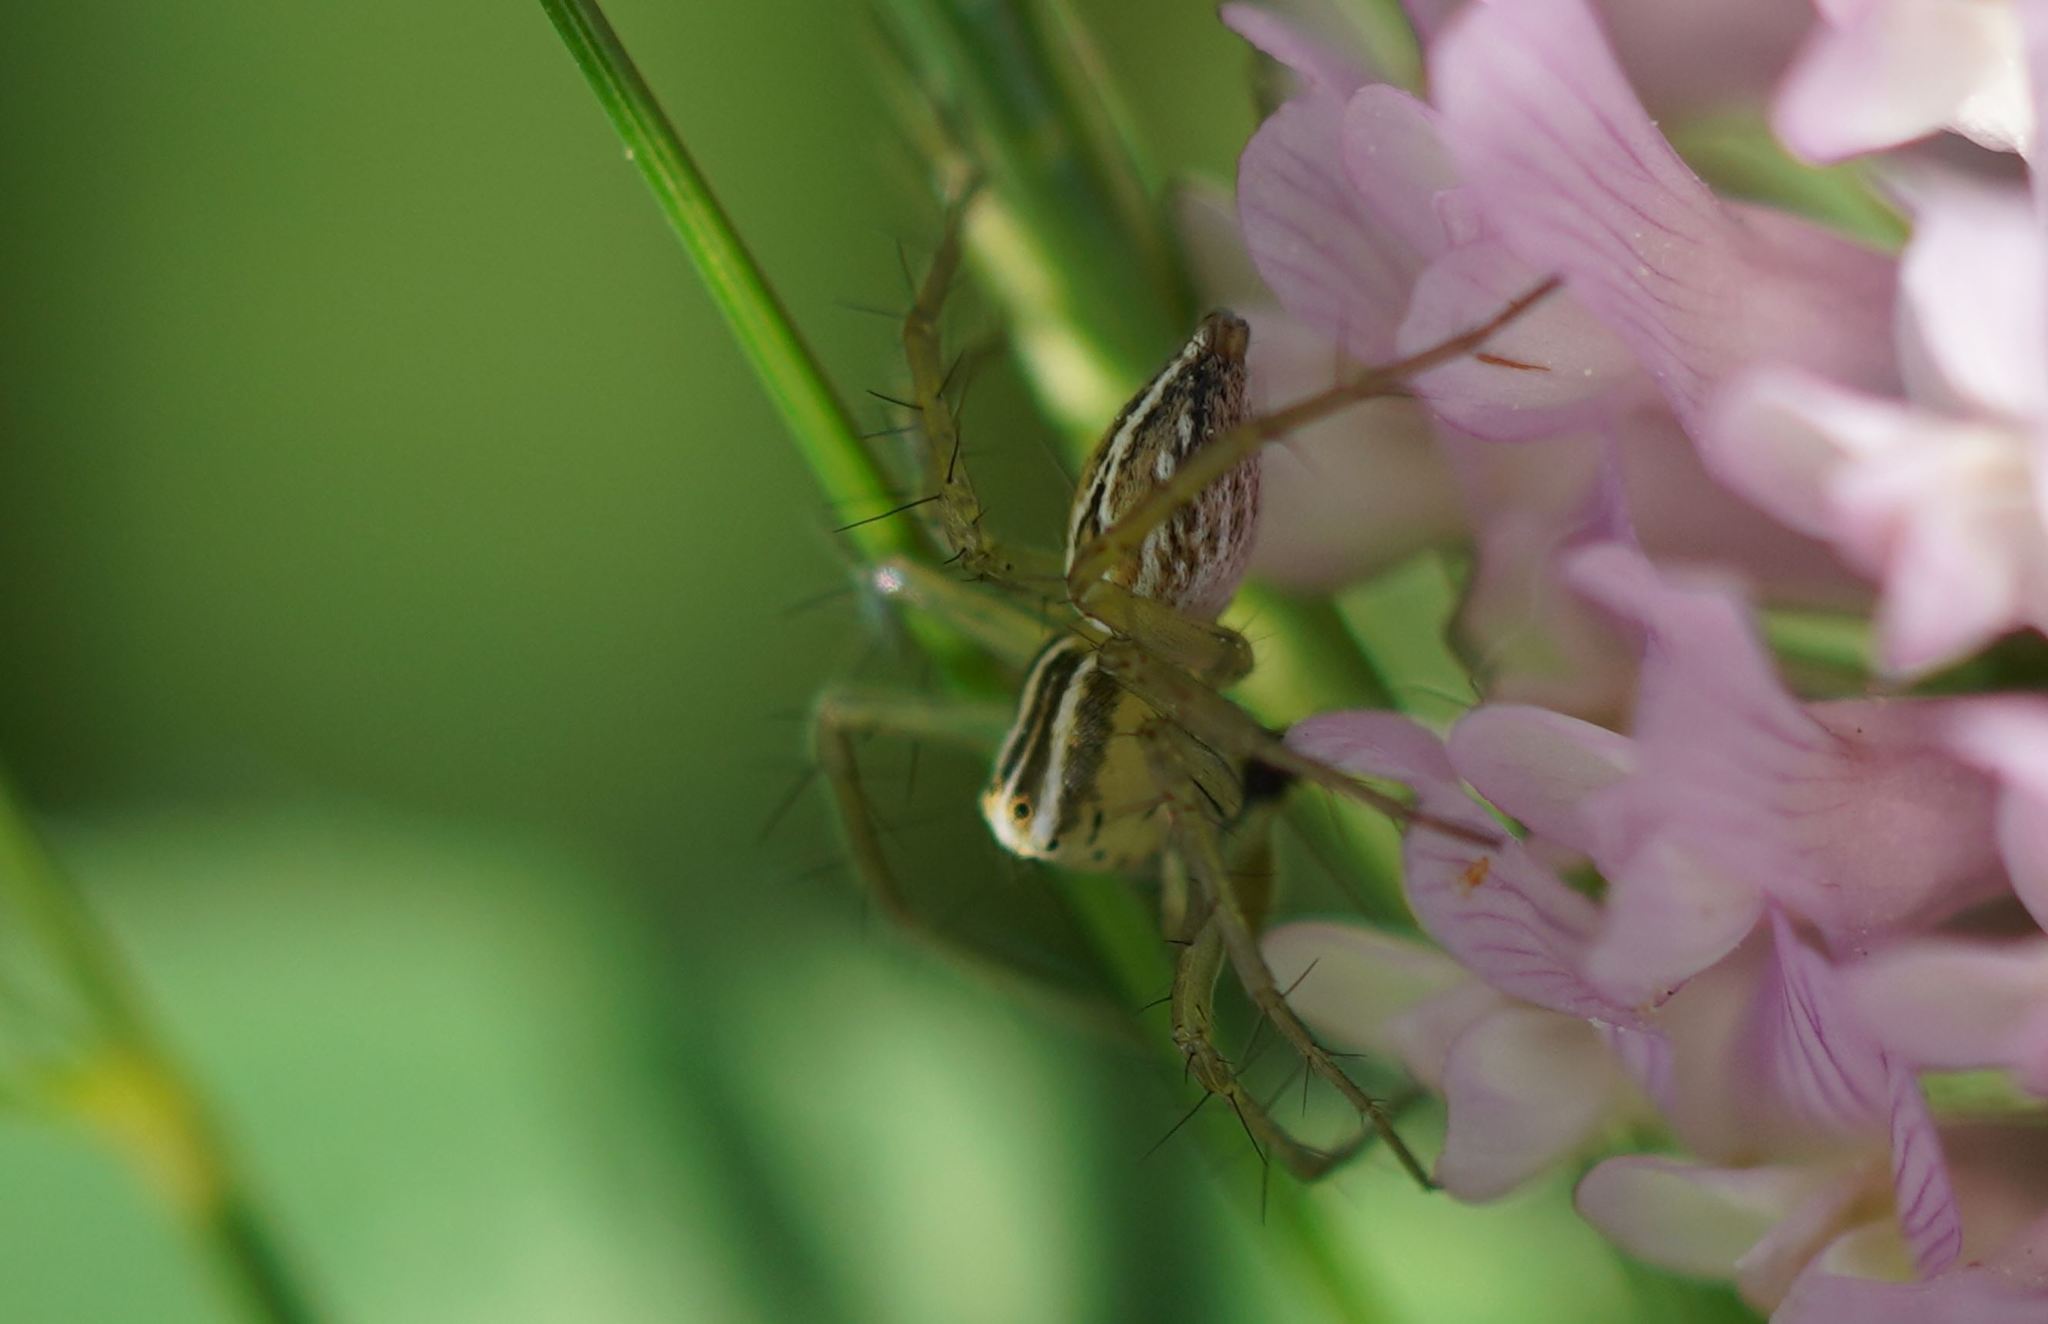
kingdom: Animalia
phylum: Arthropoda
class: Arachnida
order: Araneae
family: Oxyopidae
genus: Oxyopes
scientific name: Oxyopes salticus
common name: Lynx spiders
